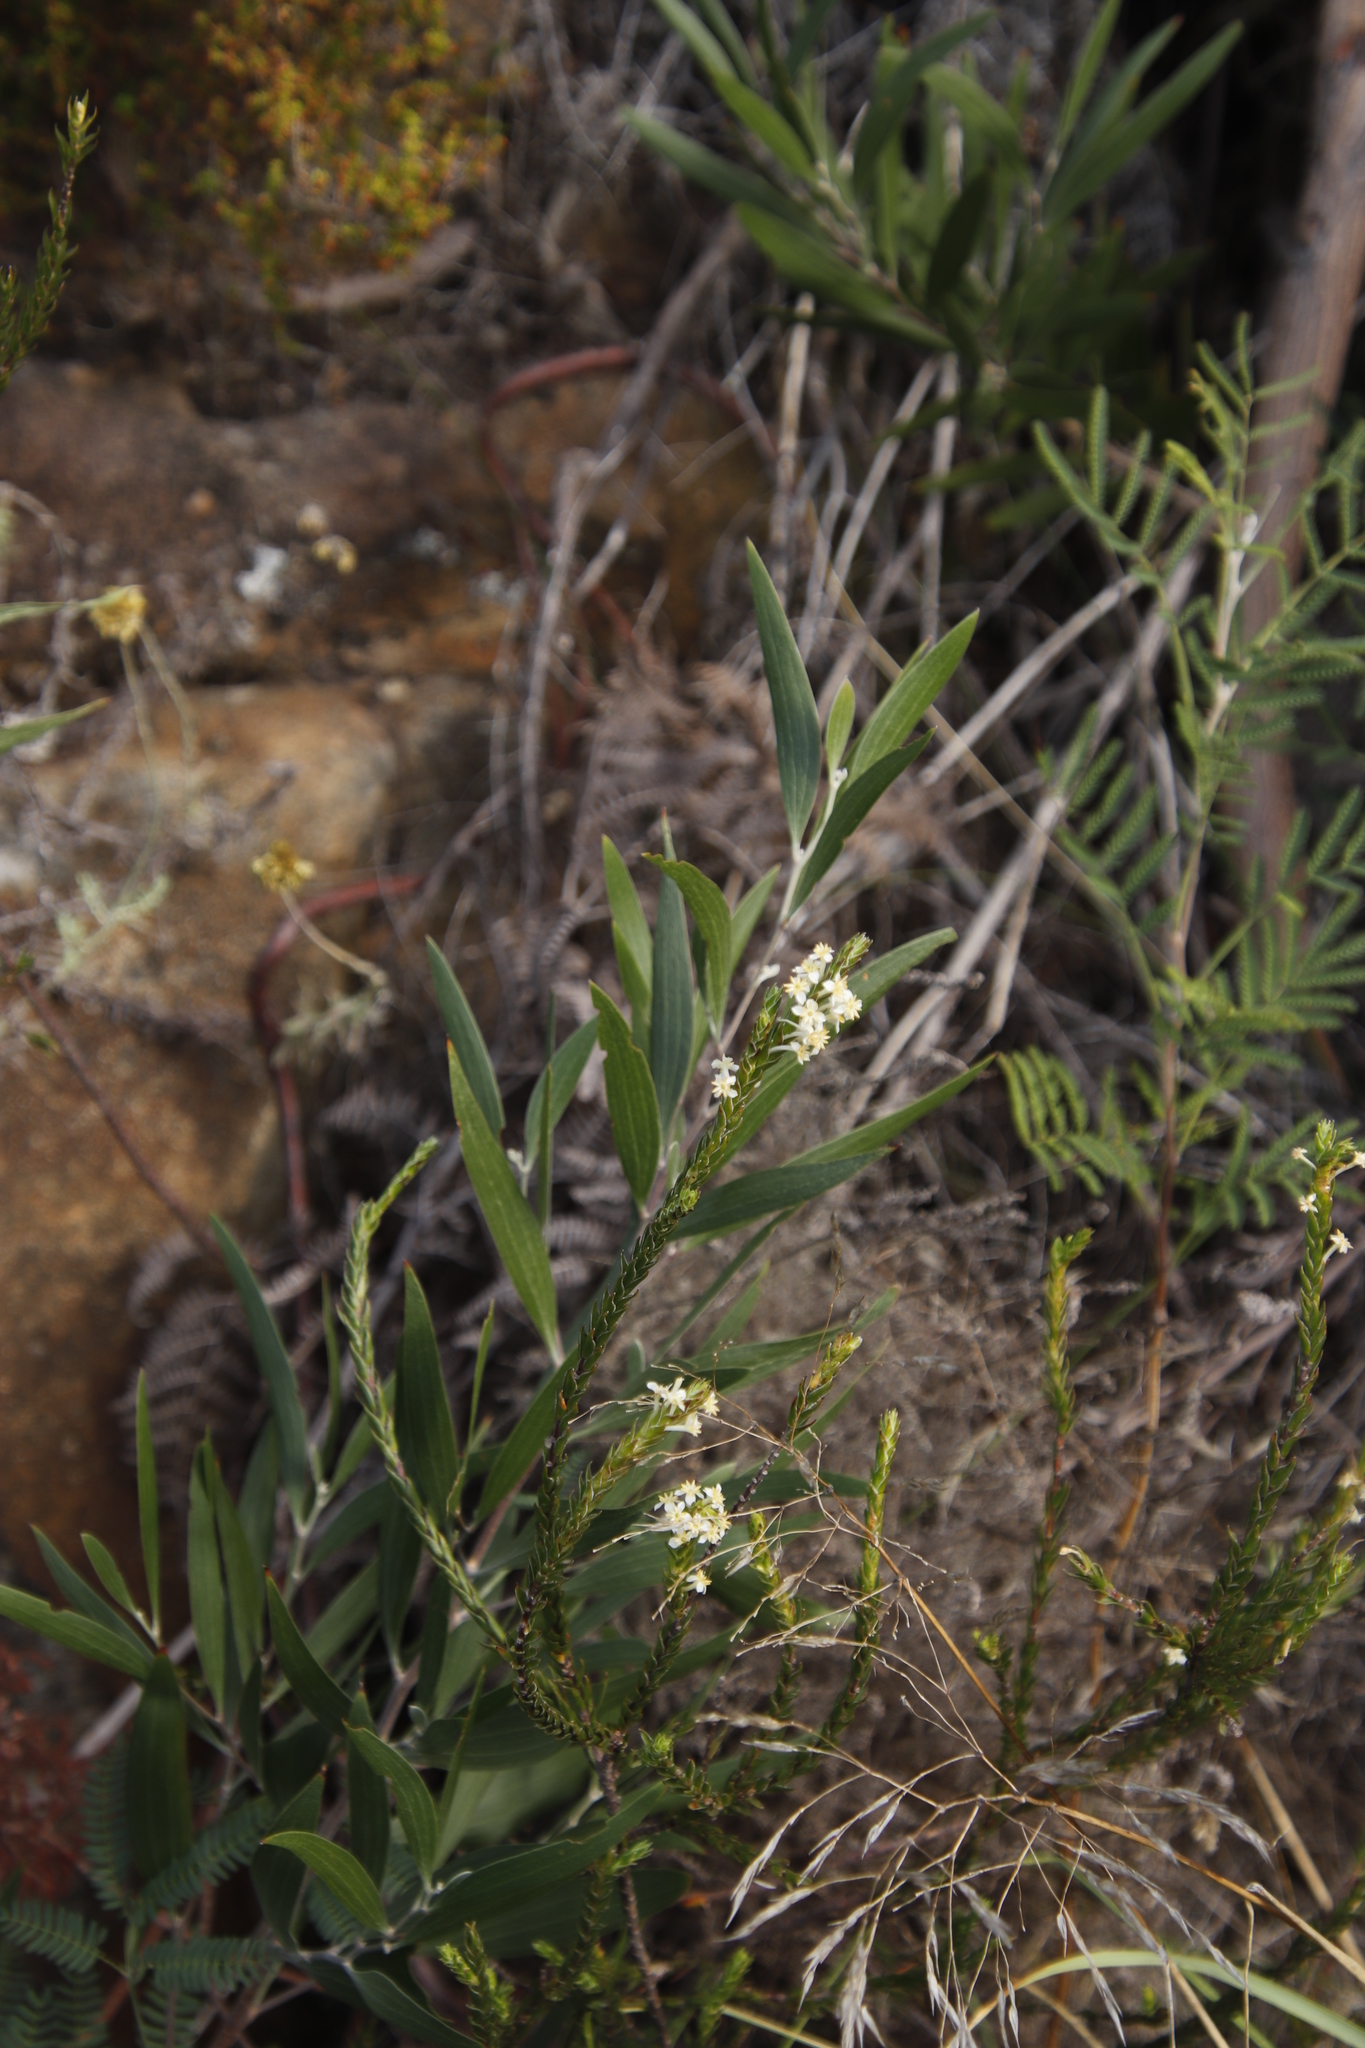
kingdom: Plantae
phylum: Tracheophyta
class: Magnoliopsida
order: Fabales
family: Fabaceae
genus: Acacia
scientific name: Acacia melanoxylon
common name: Blackwood
